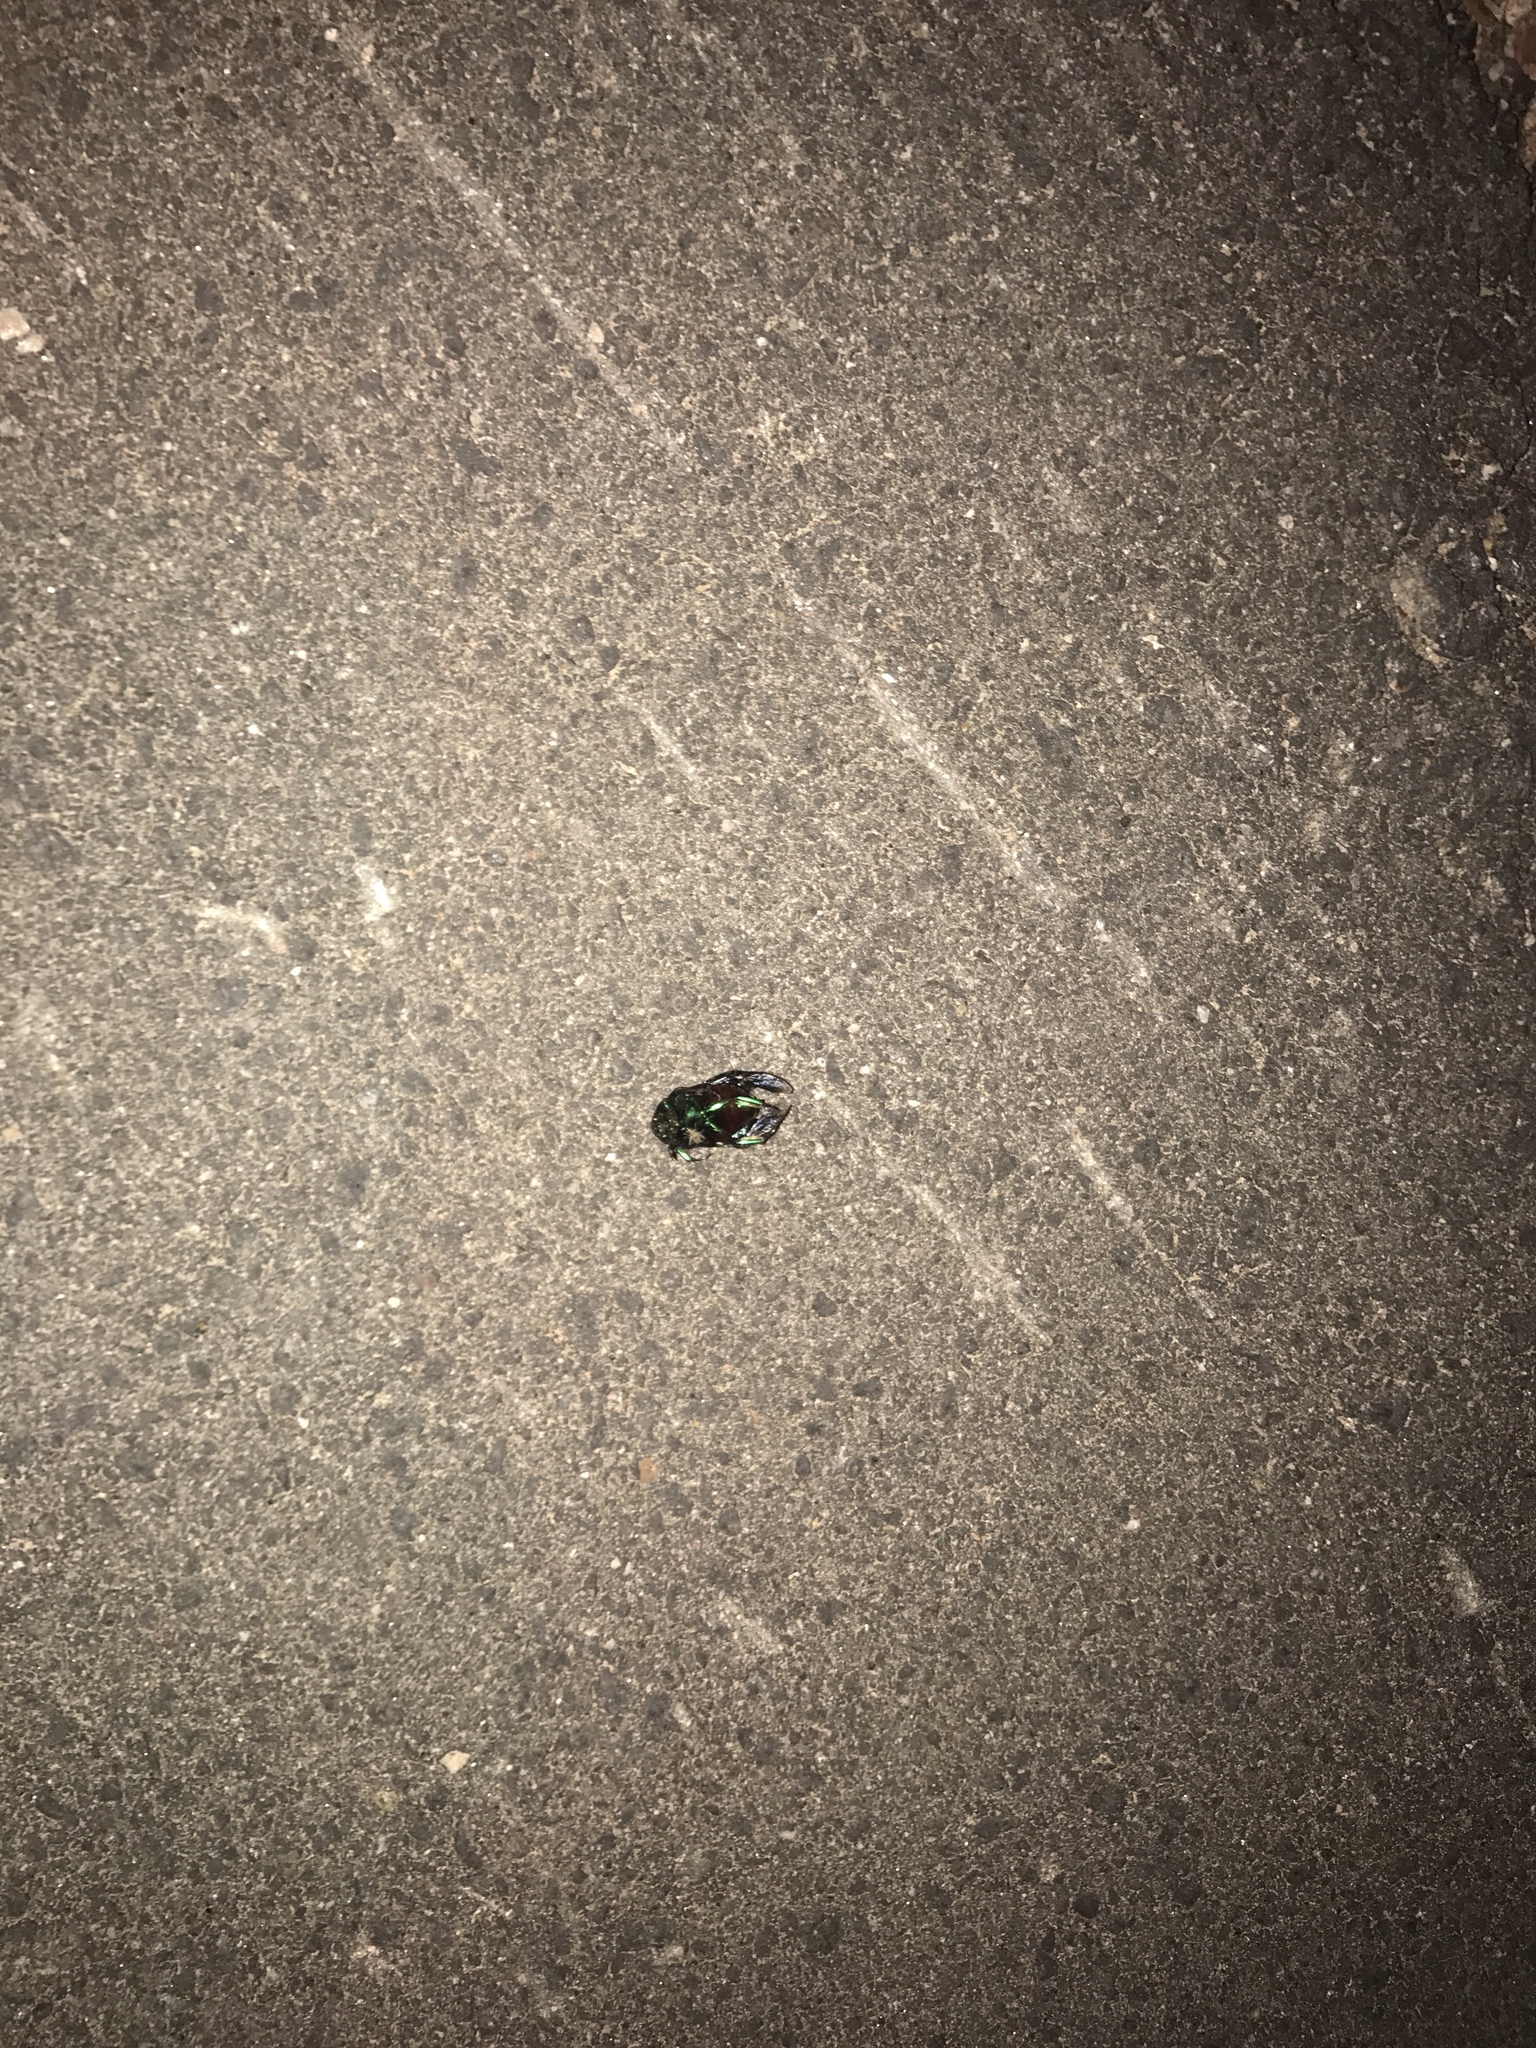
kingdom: Animalia
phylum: Arthropoda
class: Insecta
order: Coleoptera
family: Scarabaeidae
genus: Cotinis
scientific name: Cotinis mutabilis
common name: Figeater beetle
